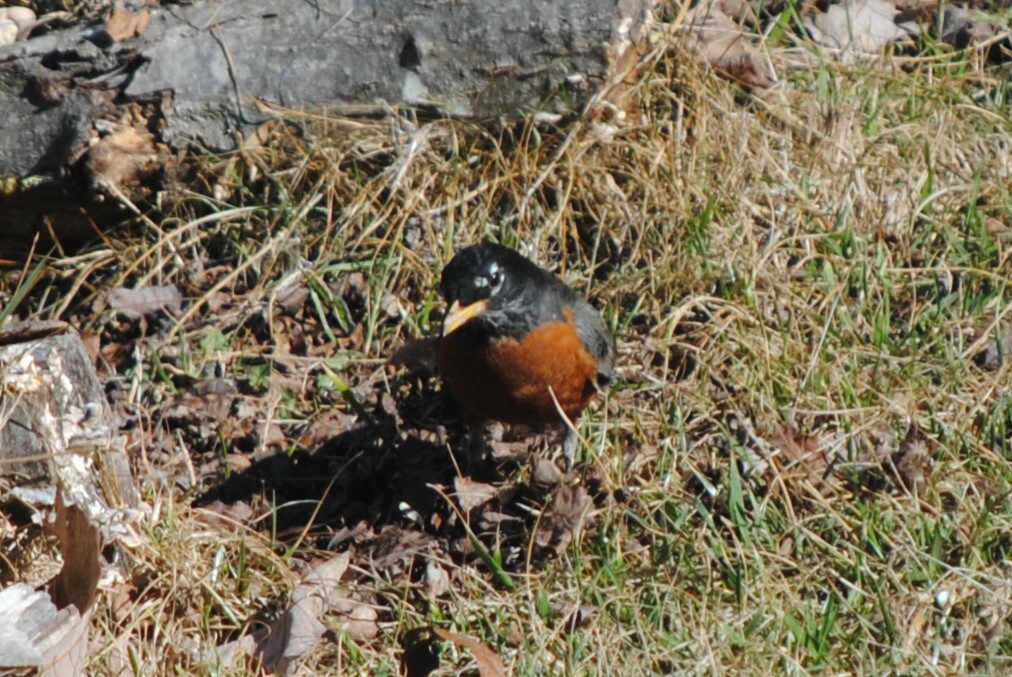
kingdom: Animalia
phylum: Chordata
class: Aves
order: Passeriformes
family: Turdidae
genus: Turdus
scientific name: Turdus migratorius
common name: American robin
